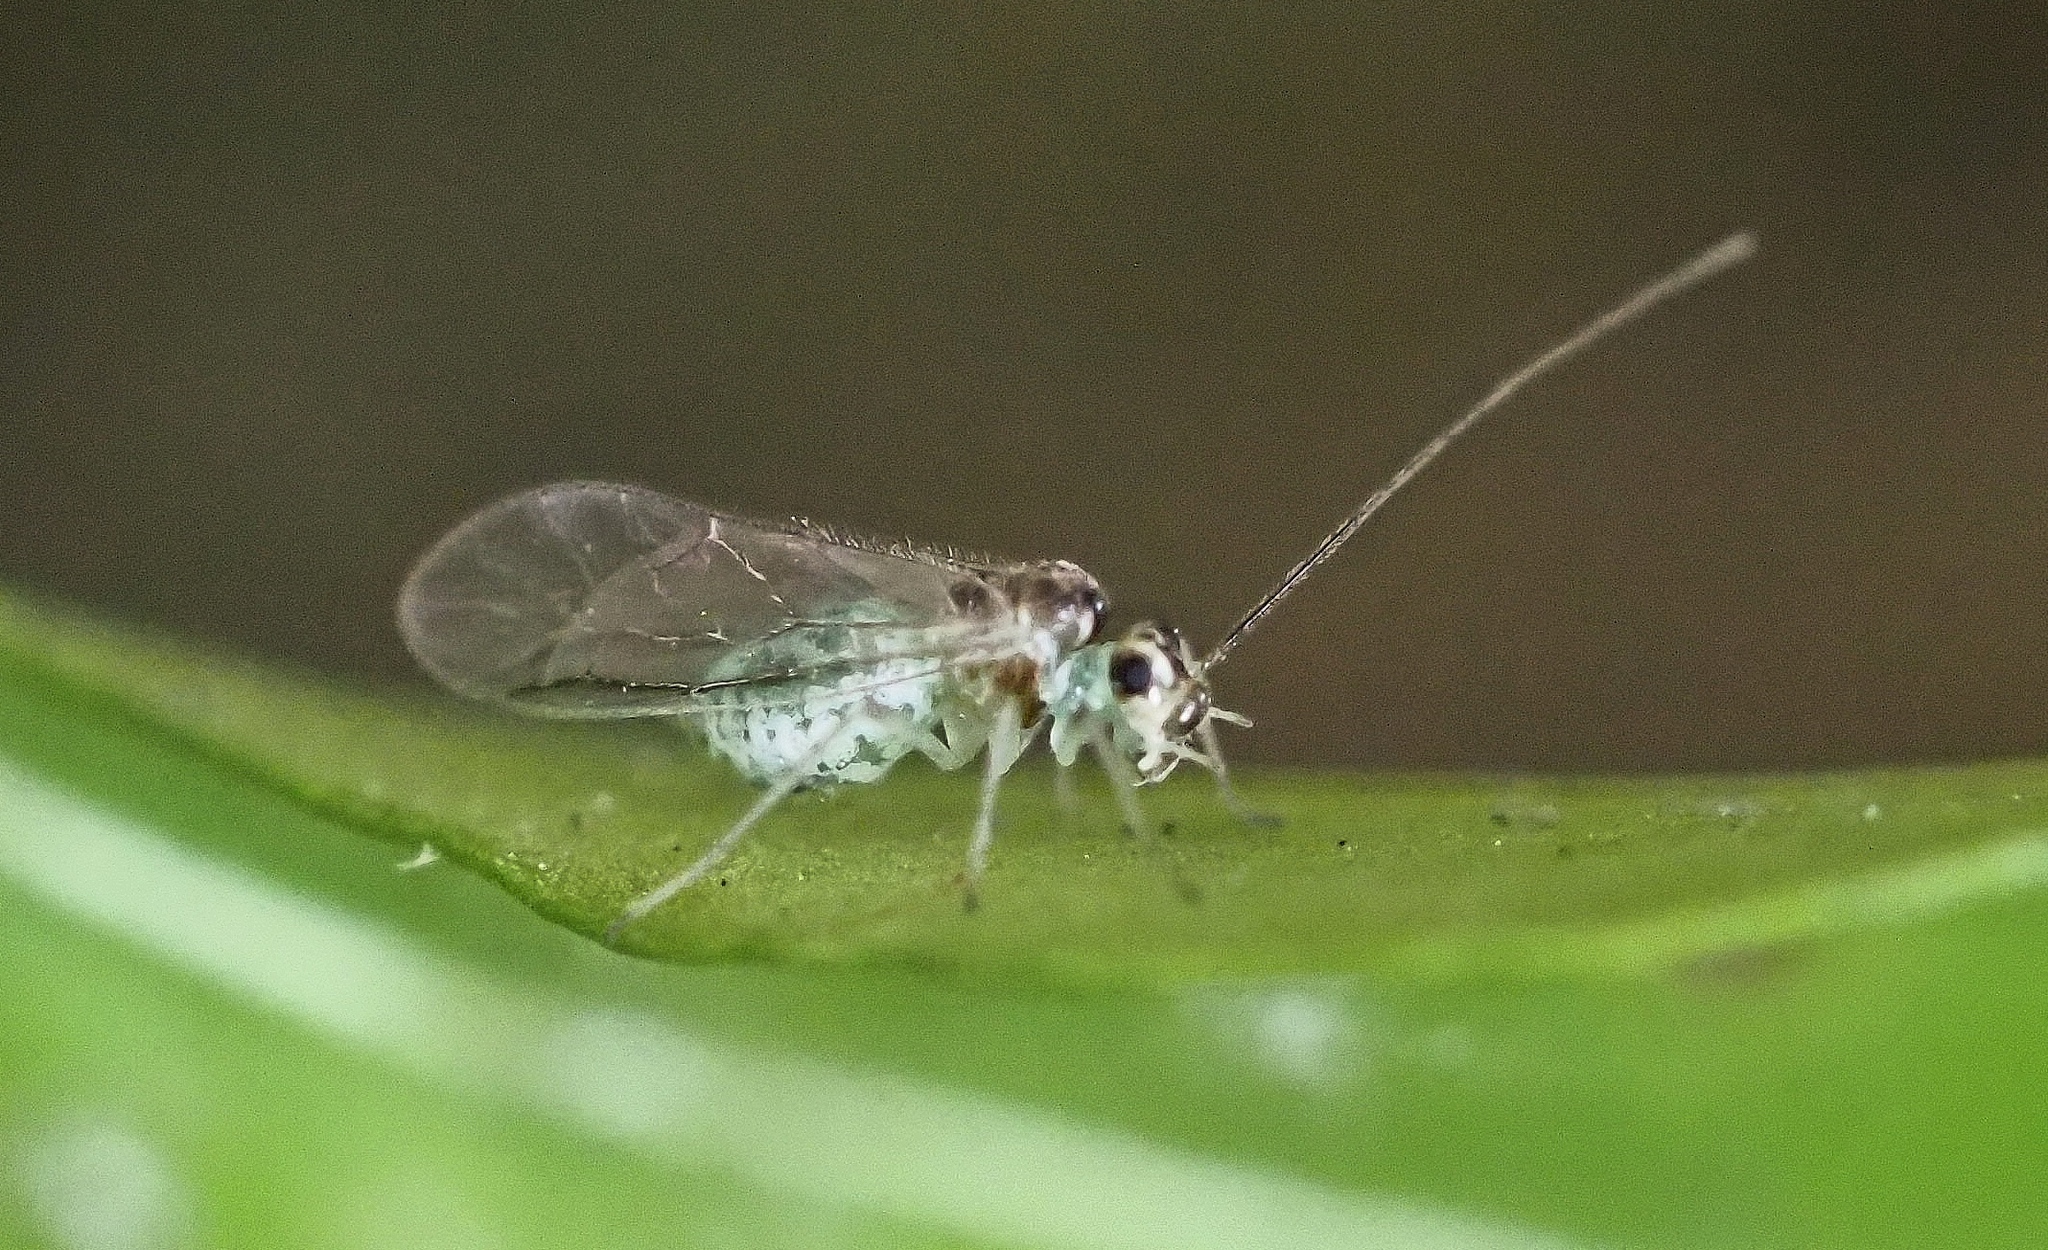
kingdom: Animalia
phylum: Arthropoda
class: Insecta
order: Psocodea
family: Stenopsocidae
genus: Stenopsocus
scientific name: Stenopsocus immaculatus
